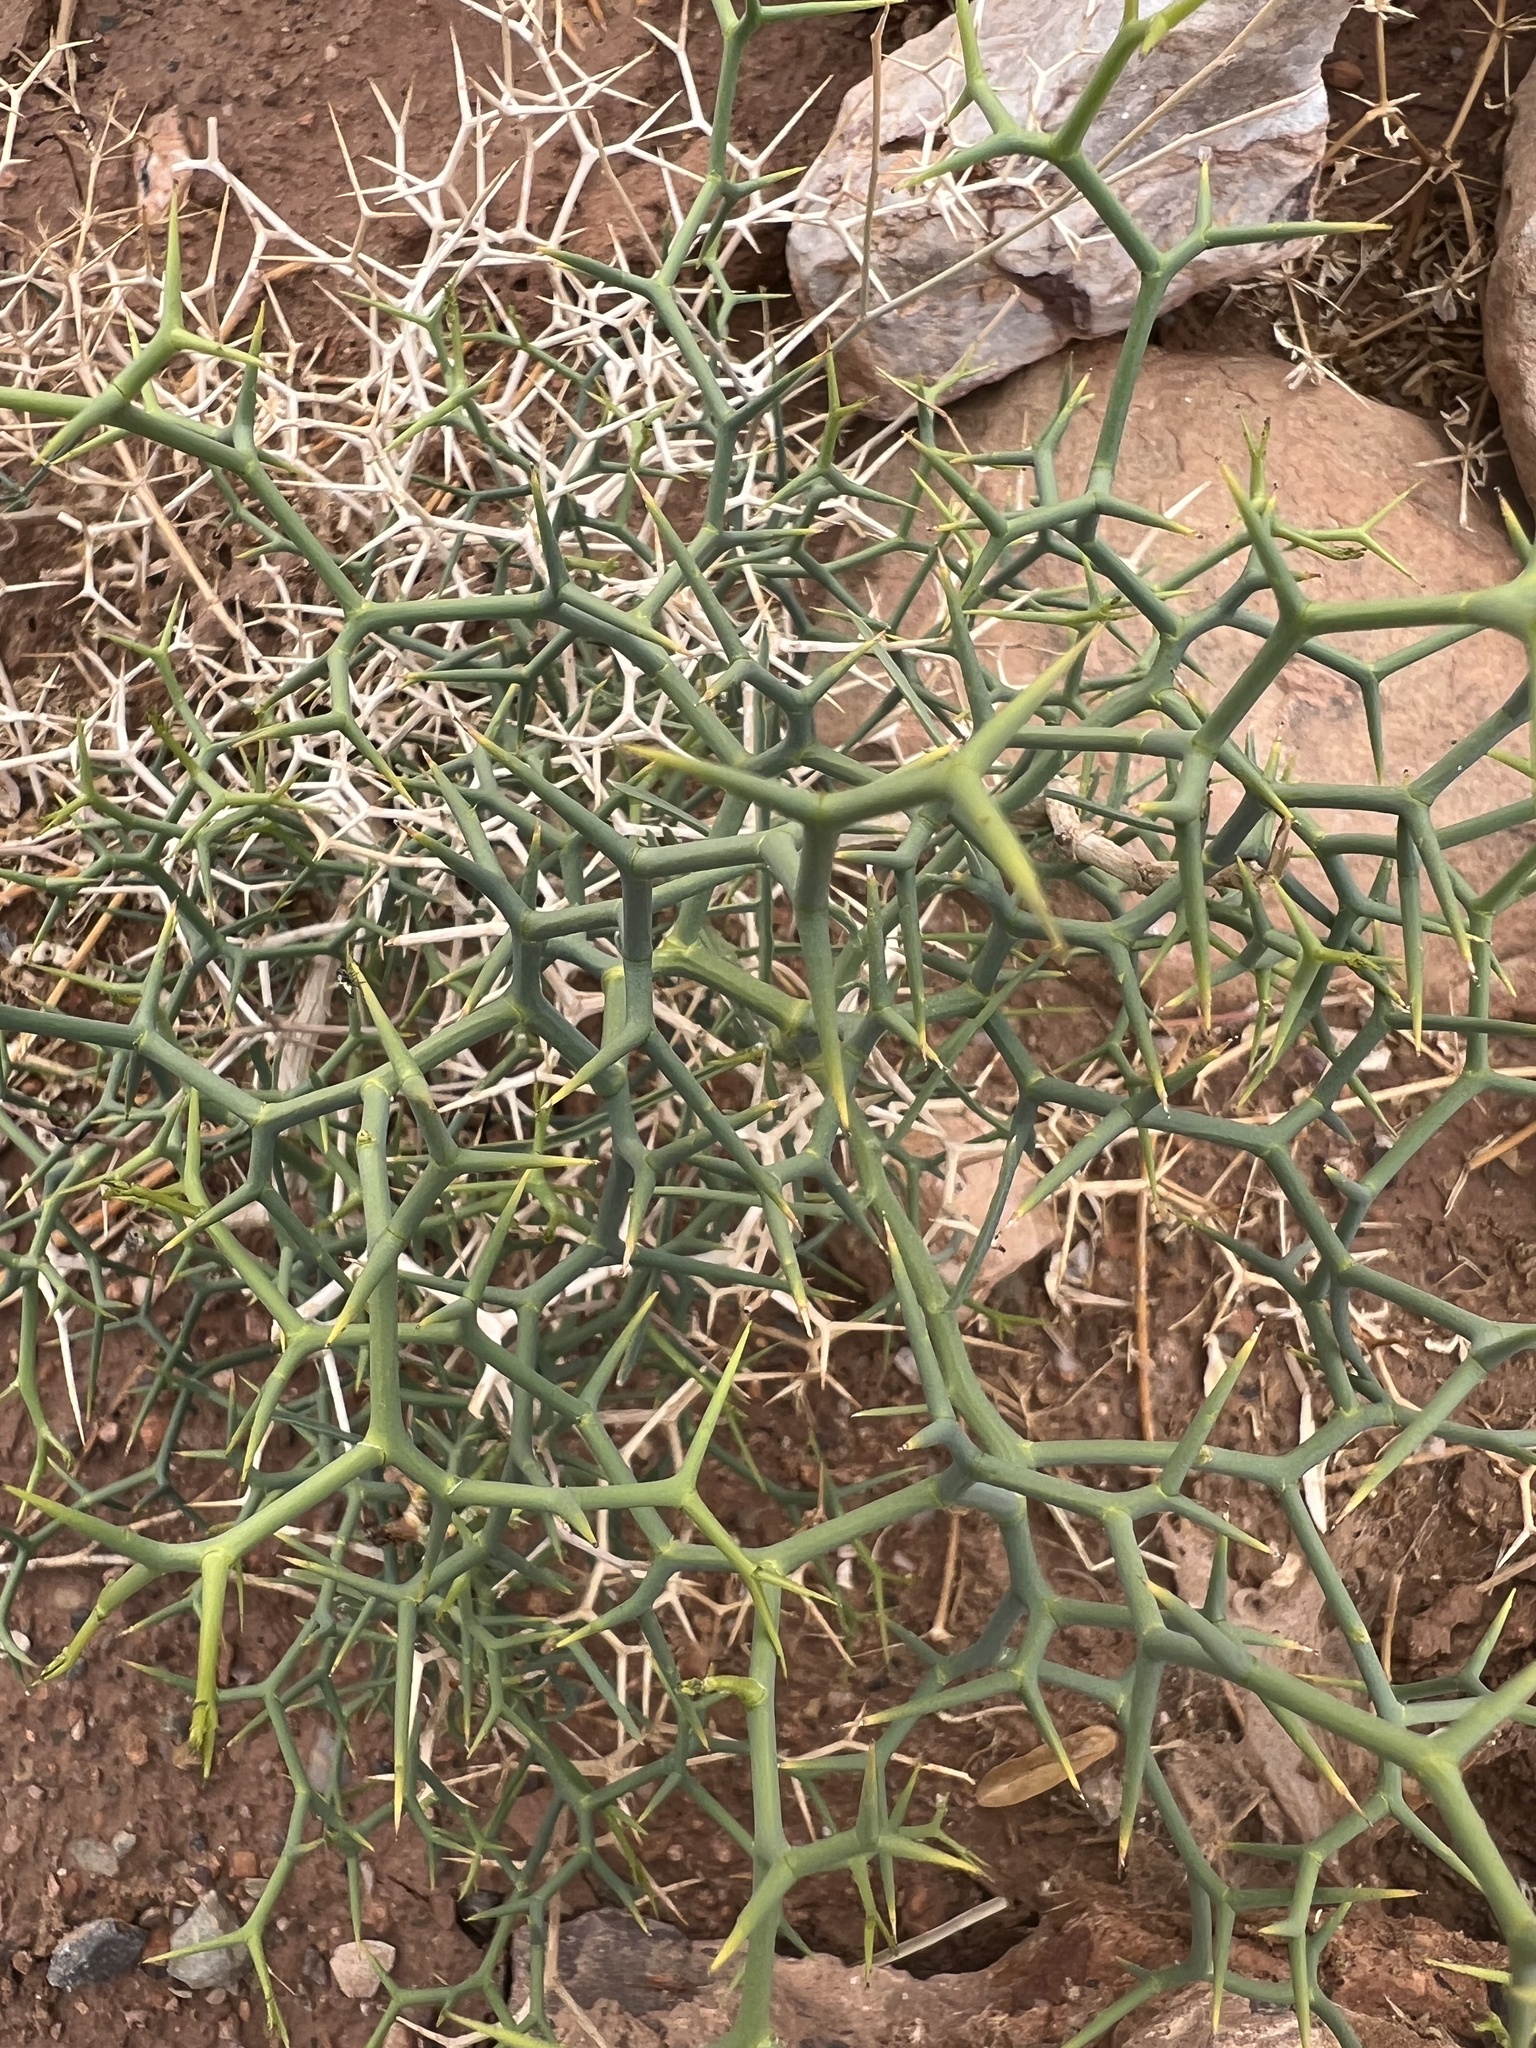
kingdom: Plantae
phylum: Tracheophyta
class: Magnoliopsida
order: Asterales
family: Asteraceae
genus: Launaea
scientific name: Launaea arborescens
